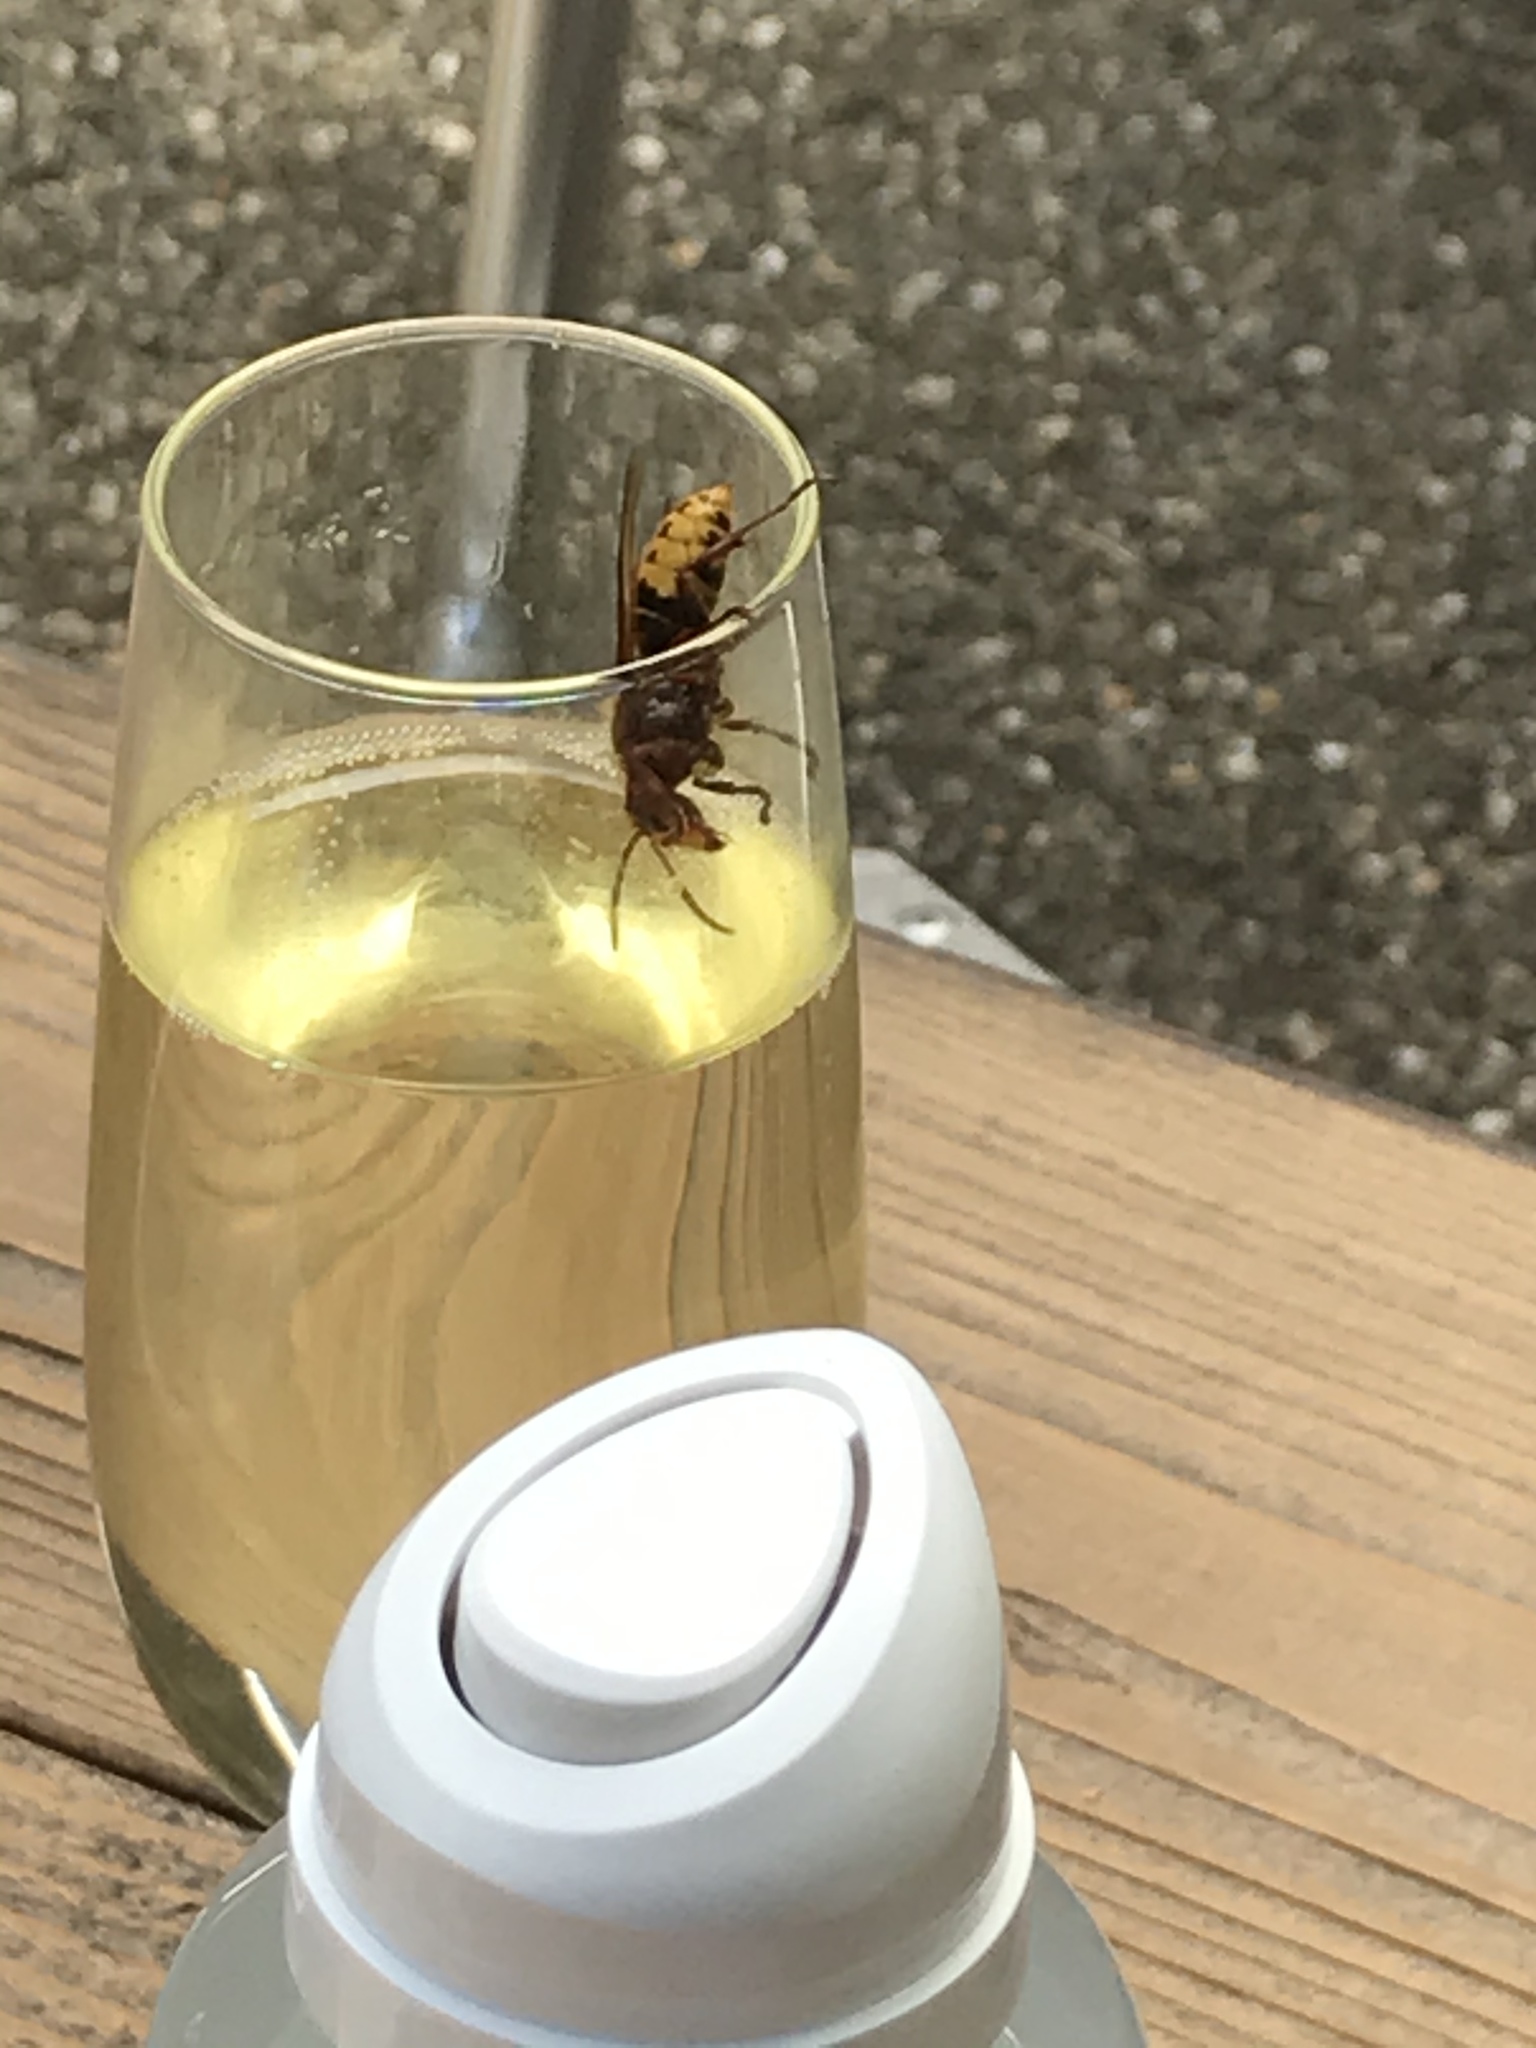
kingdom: Animalia
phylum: Arthropoda
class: Insecta
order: Hymenoptera
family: Vespidae
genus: Vespa
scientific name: Vespa crabro
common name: Hornet
